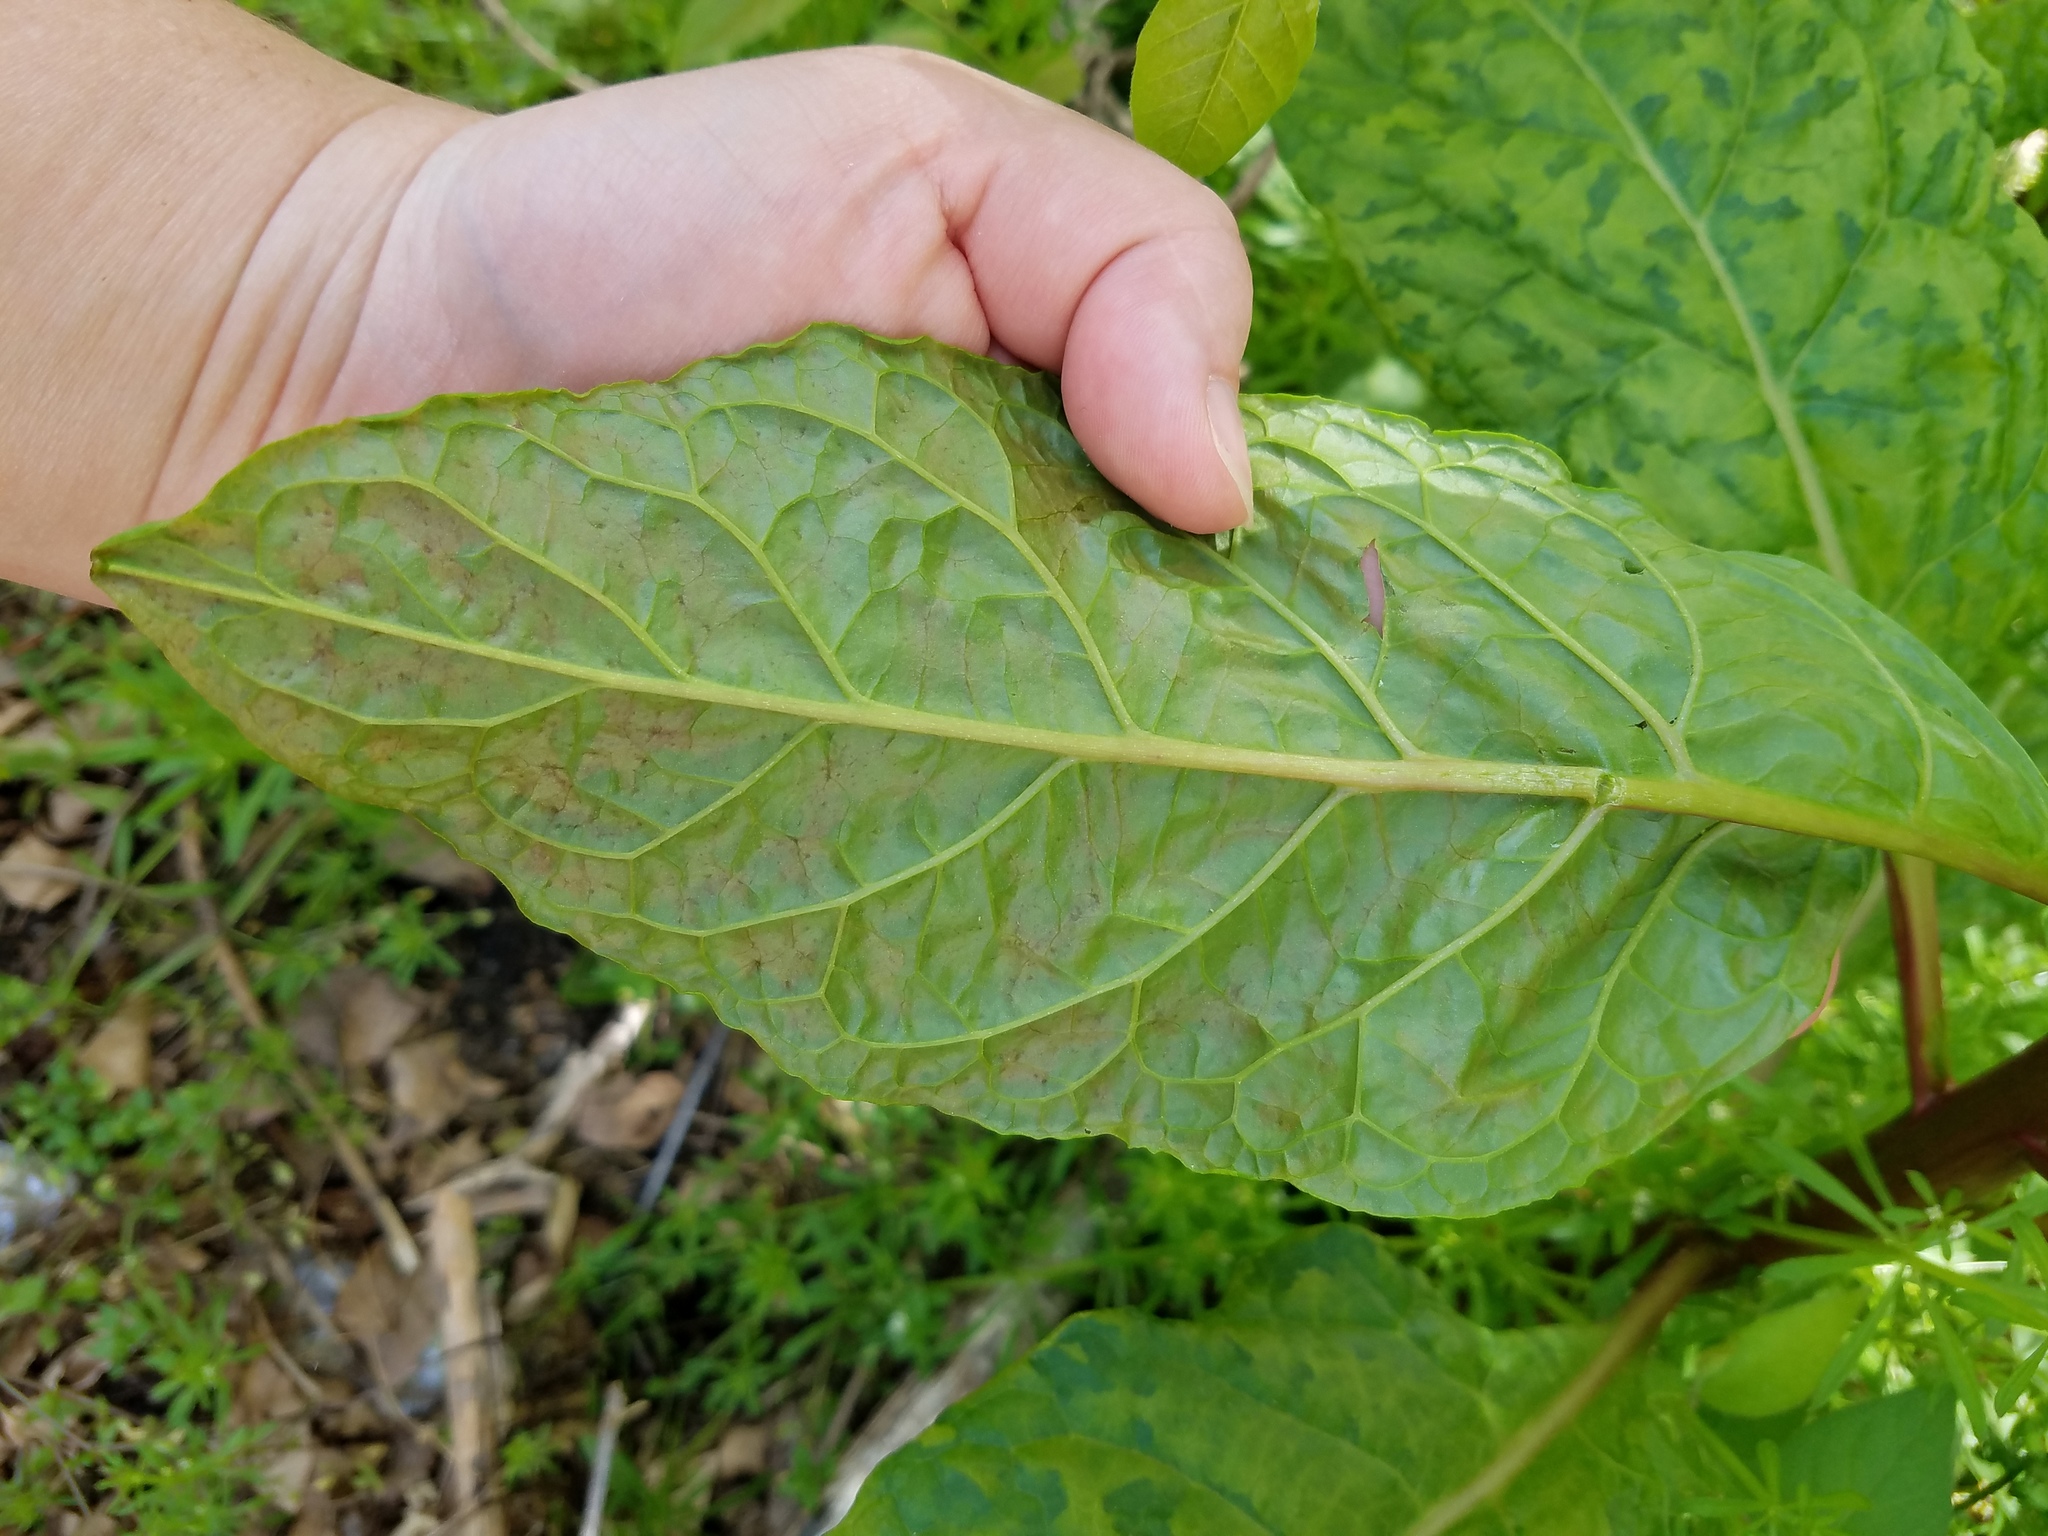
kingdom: Viruses
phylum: Pisuviricota
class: Stelpaviricetes
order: Patatavirales
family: Potyviridae
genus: Potyvirus
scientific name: Potyvirus Pokeweed mosaic virus
